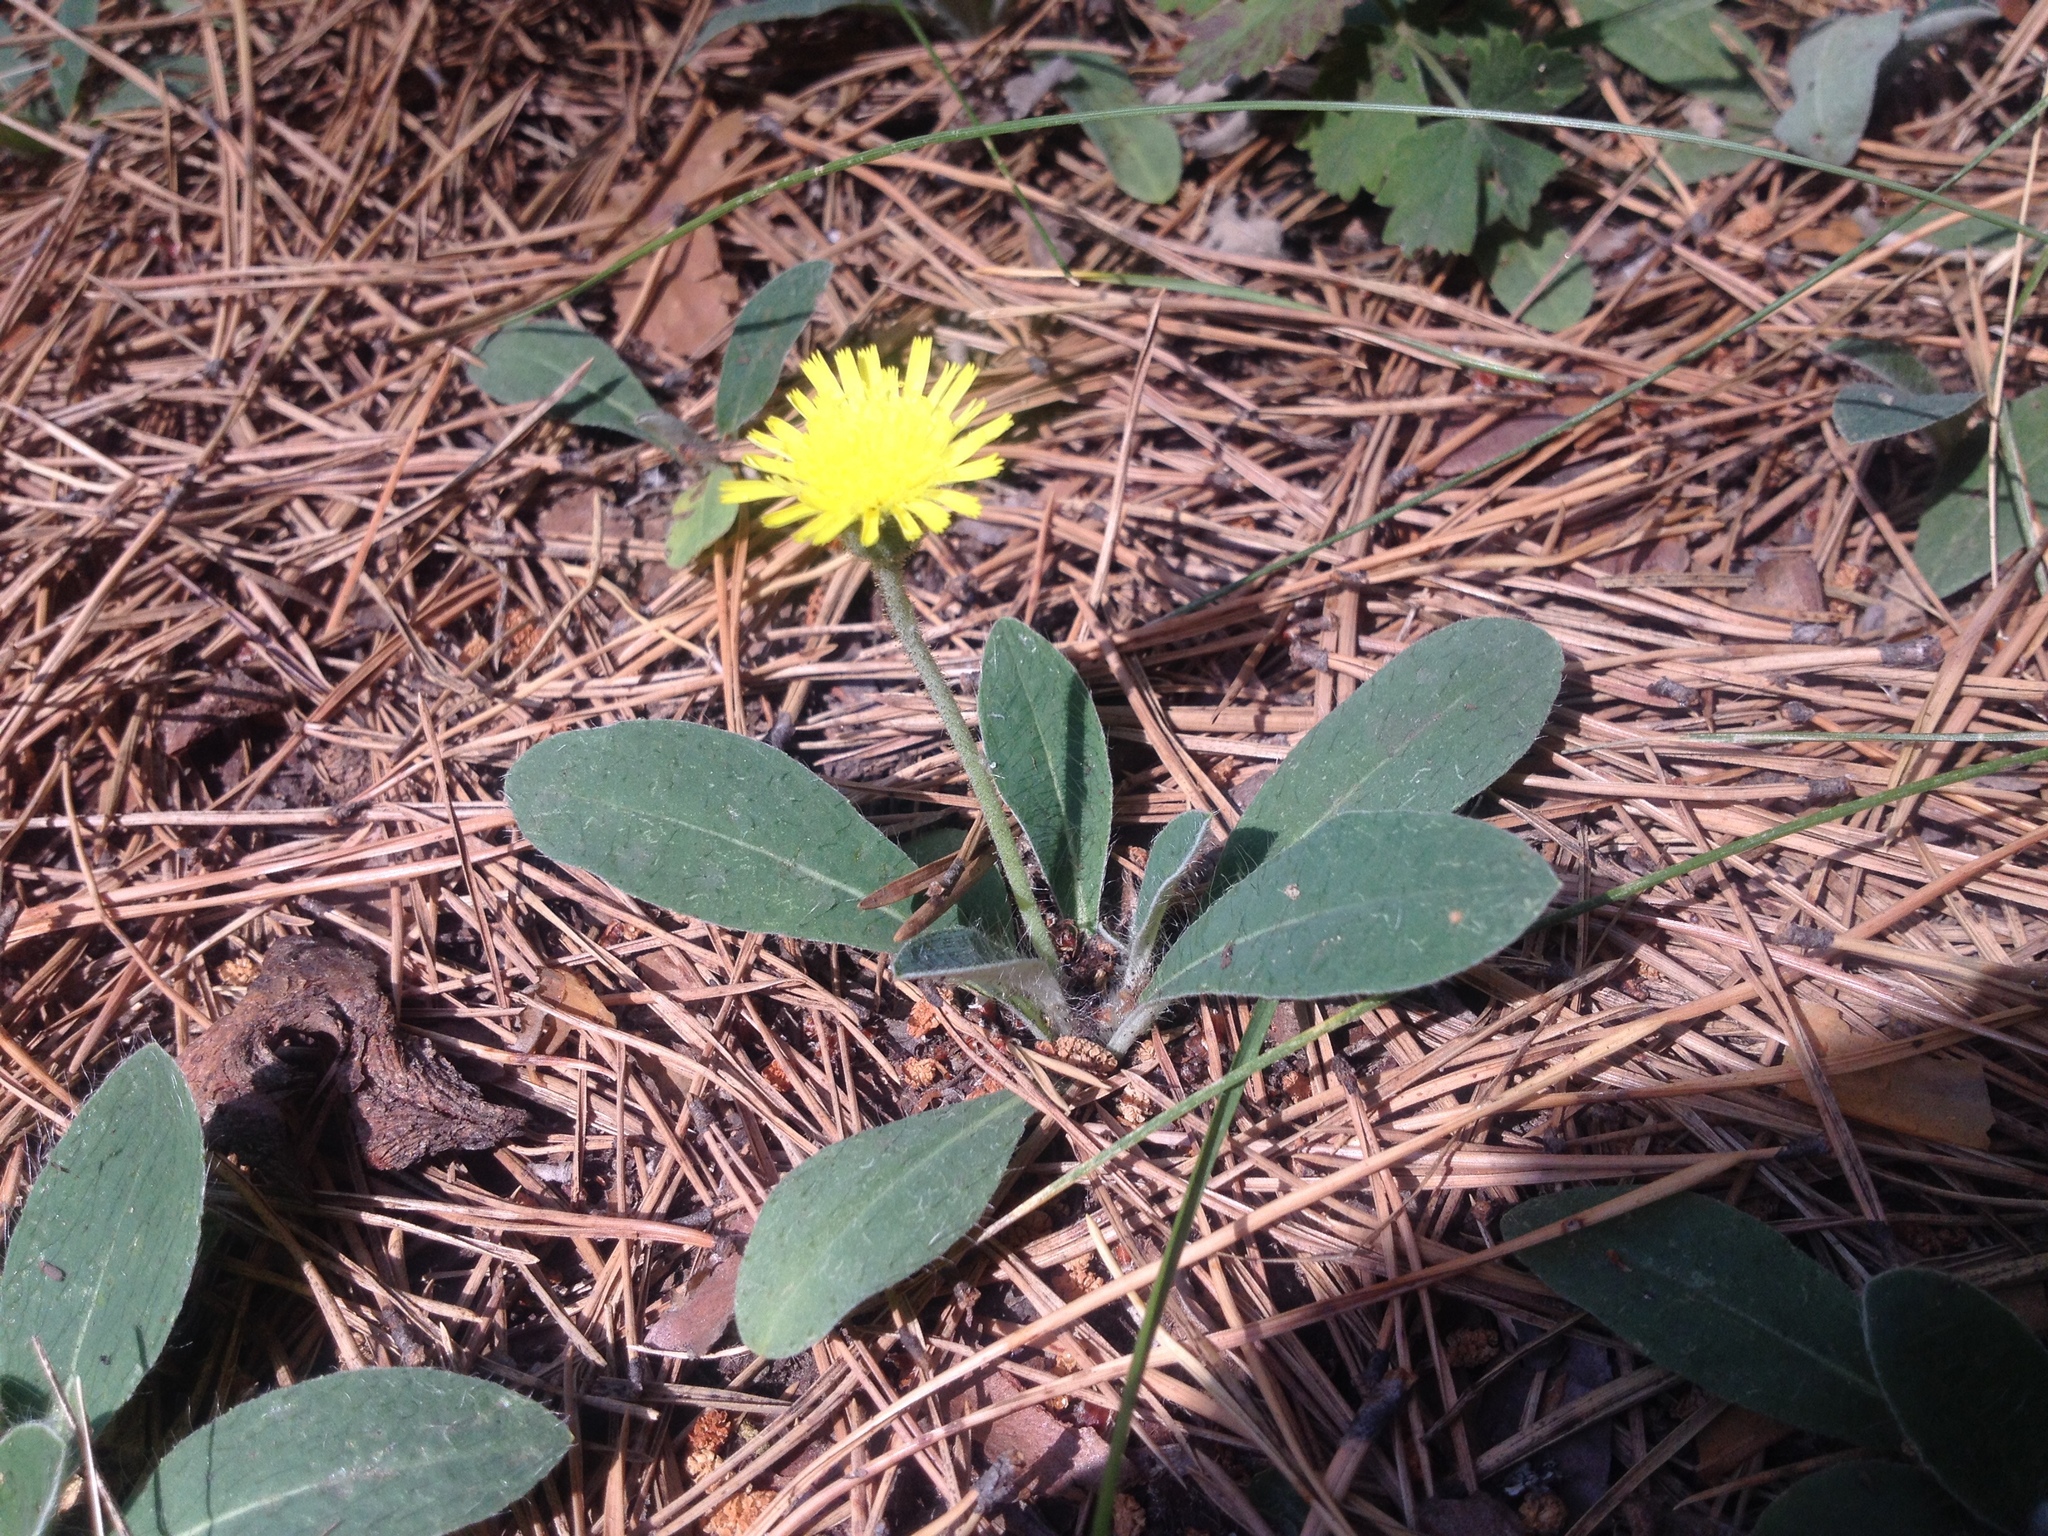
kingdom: Plantae
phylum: Tracheophyta
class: Magnoliopsida
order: Asterales
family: Asteraceae
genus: Pilosella
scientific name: Pilosella officinarum
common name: Mouse-ear hawkweed
